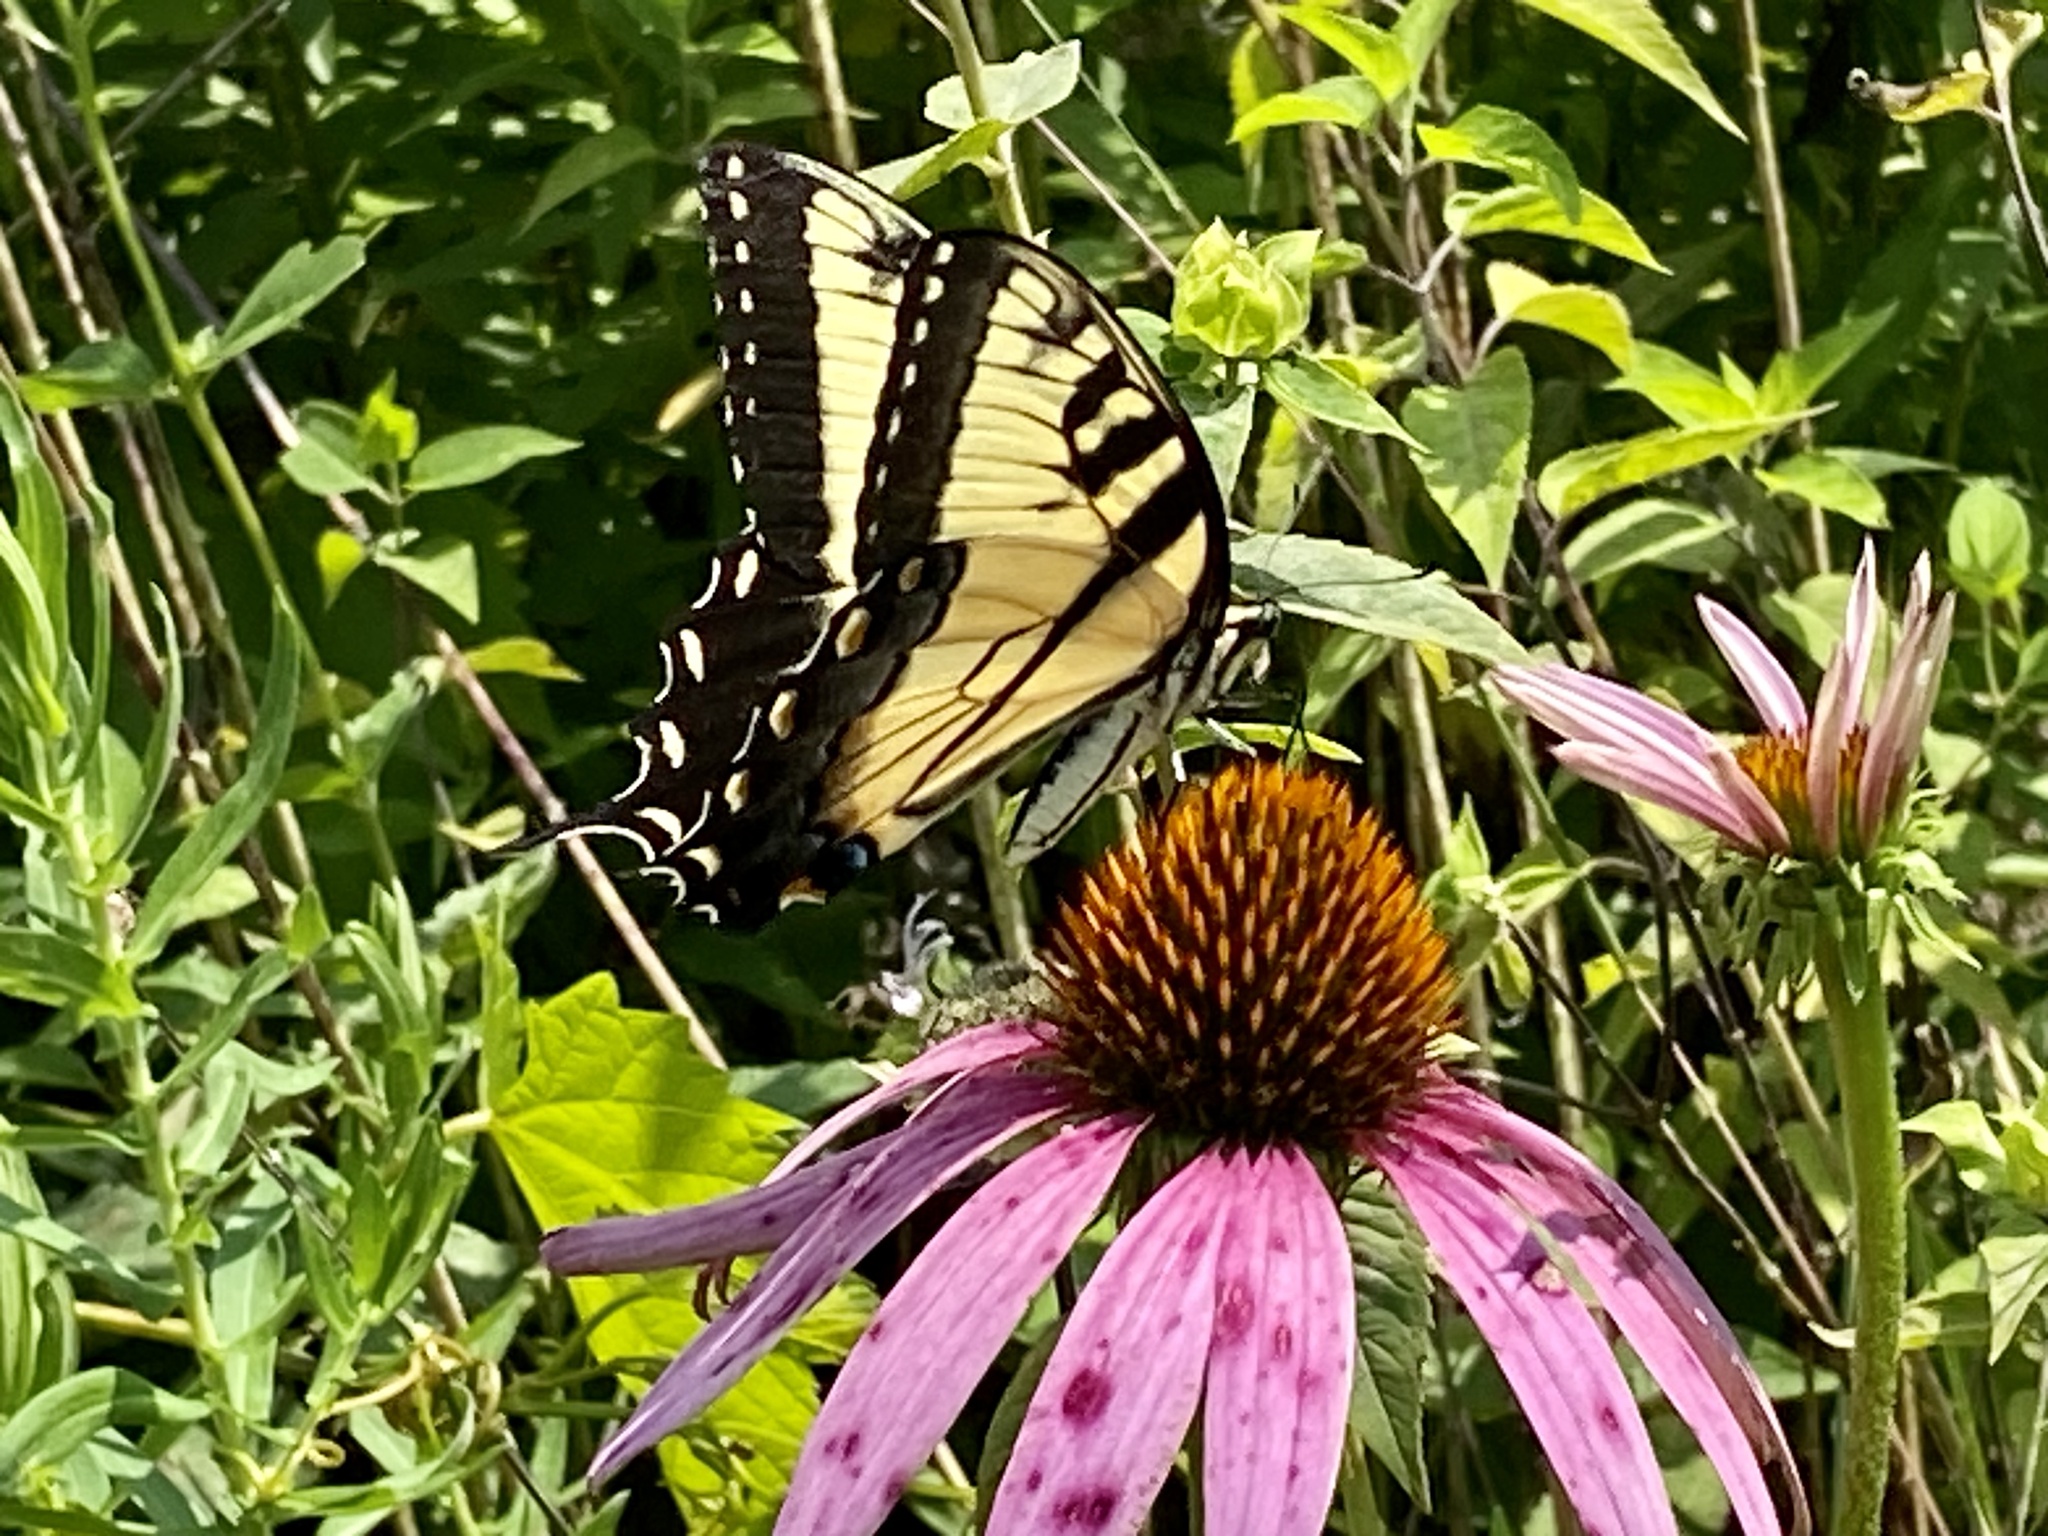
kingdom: Animalia
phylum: Arthropoda
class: Insecta
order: Lepidoptera
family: Papilionidae
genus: Papilio
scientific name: Papilio glaucus
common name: Tiger swallowtail
